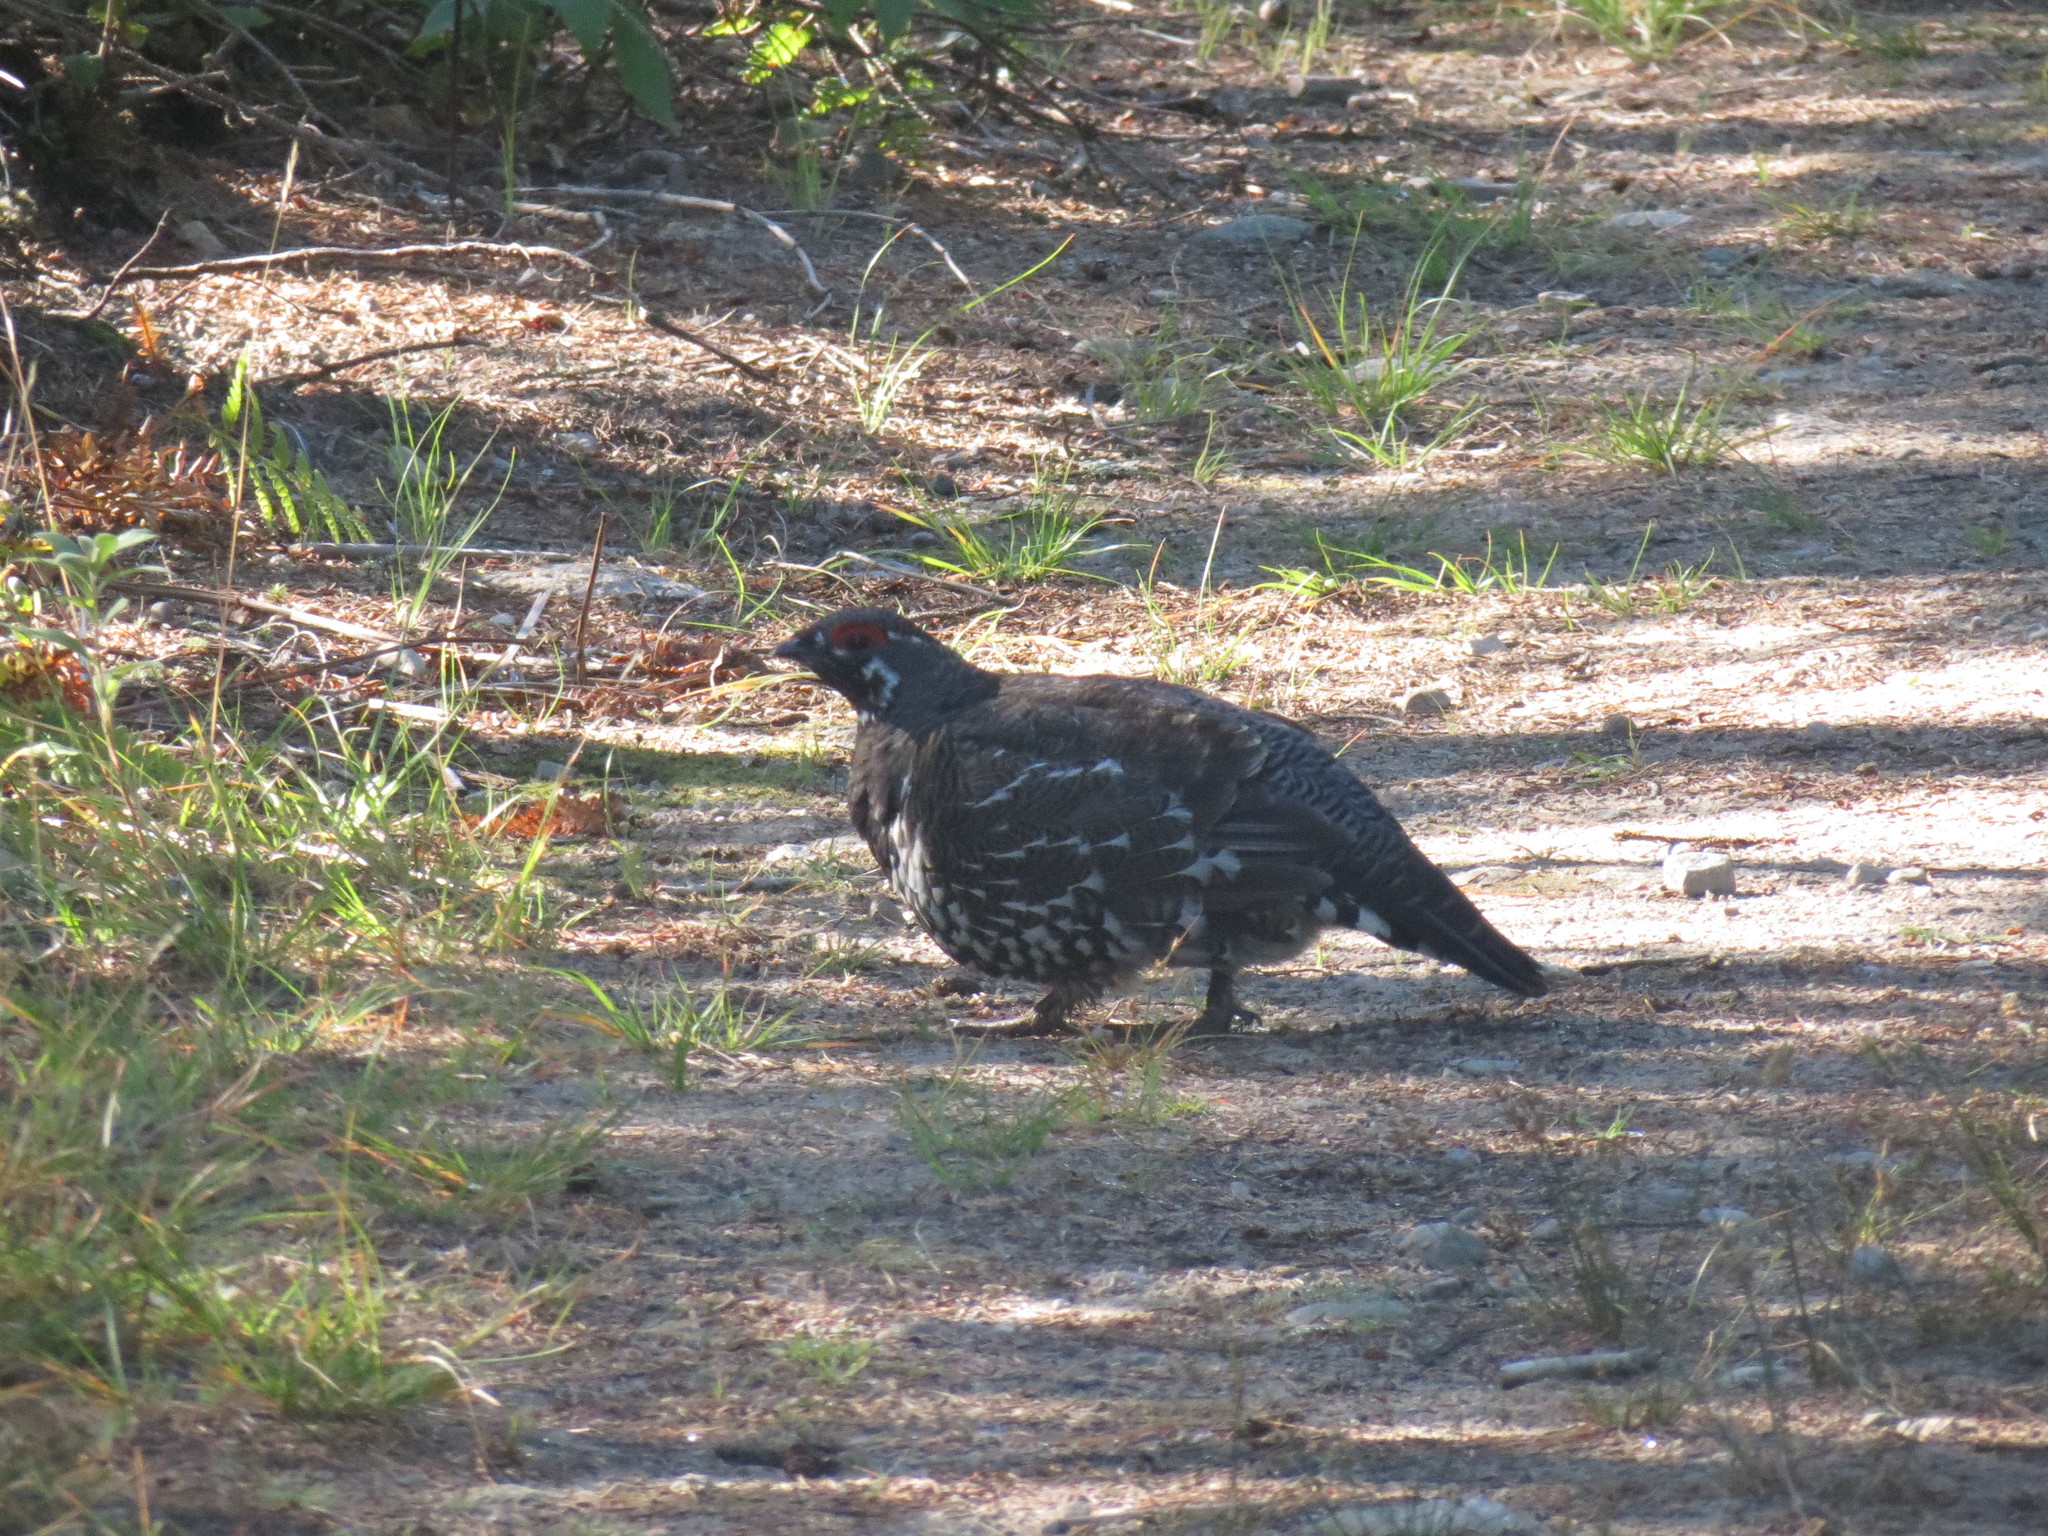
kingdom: Animalia
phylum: Chordata
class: Aves
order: Galliformes
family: Phasianidae
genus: Canachites
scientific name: Canachites canadensis
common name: Spruce grouse
